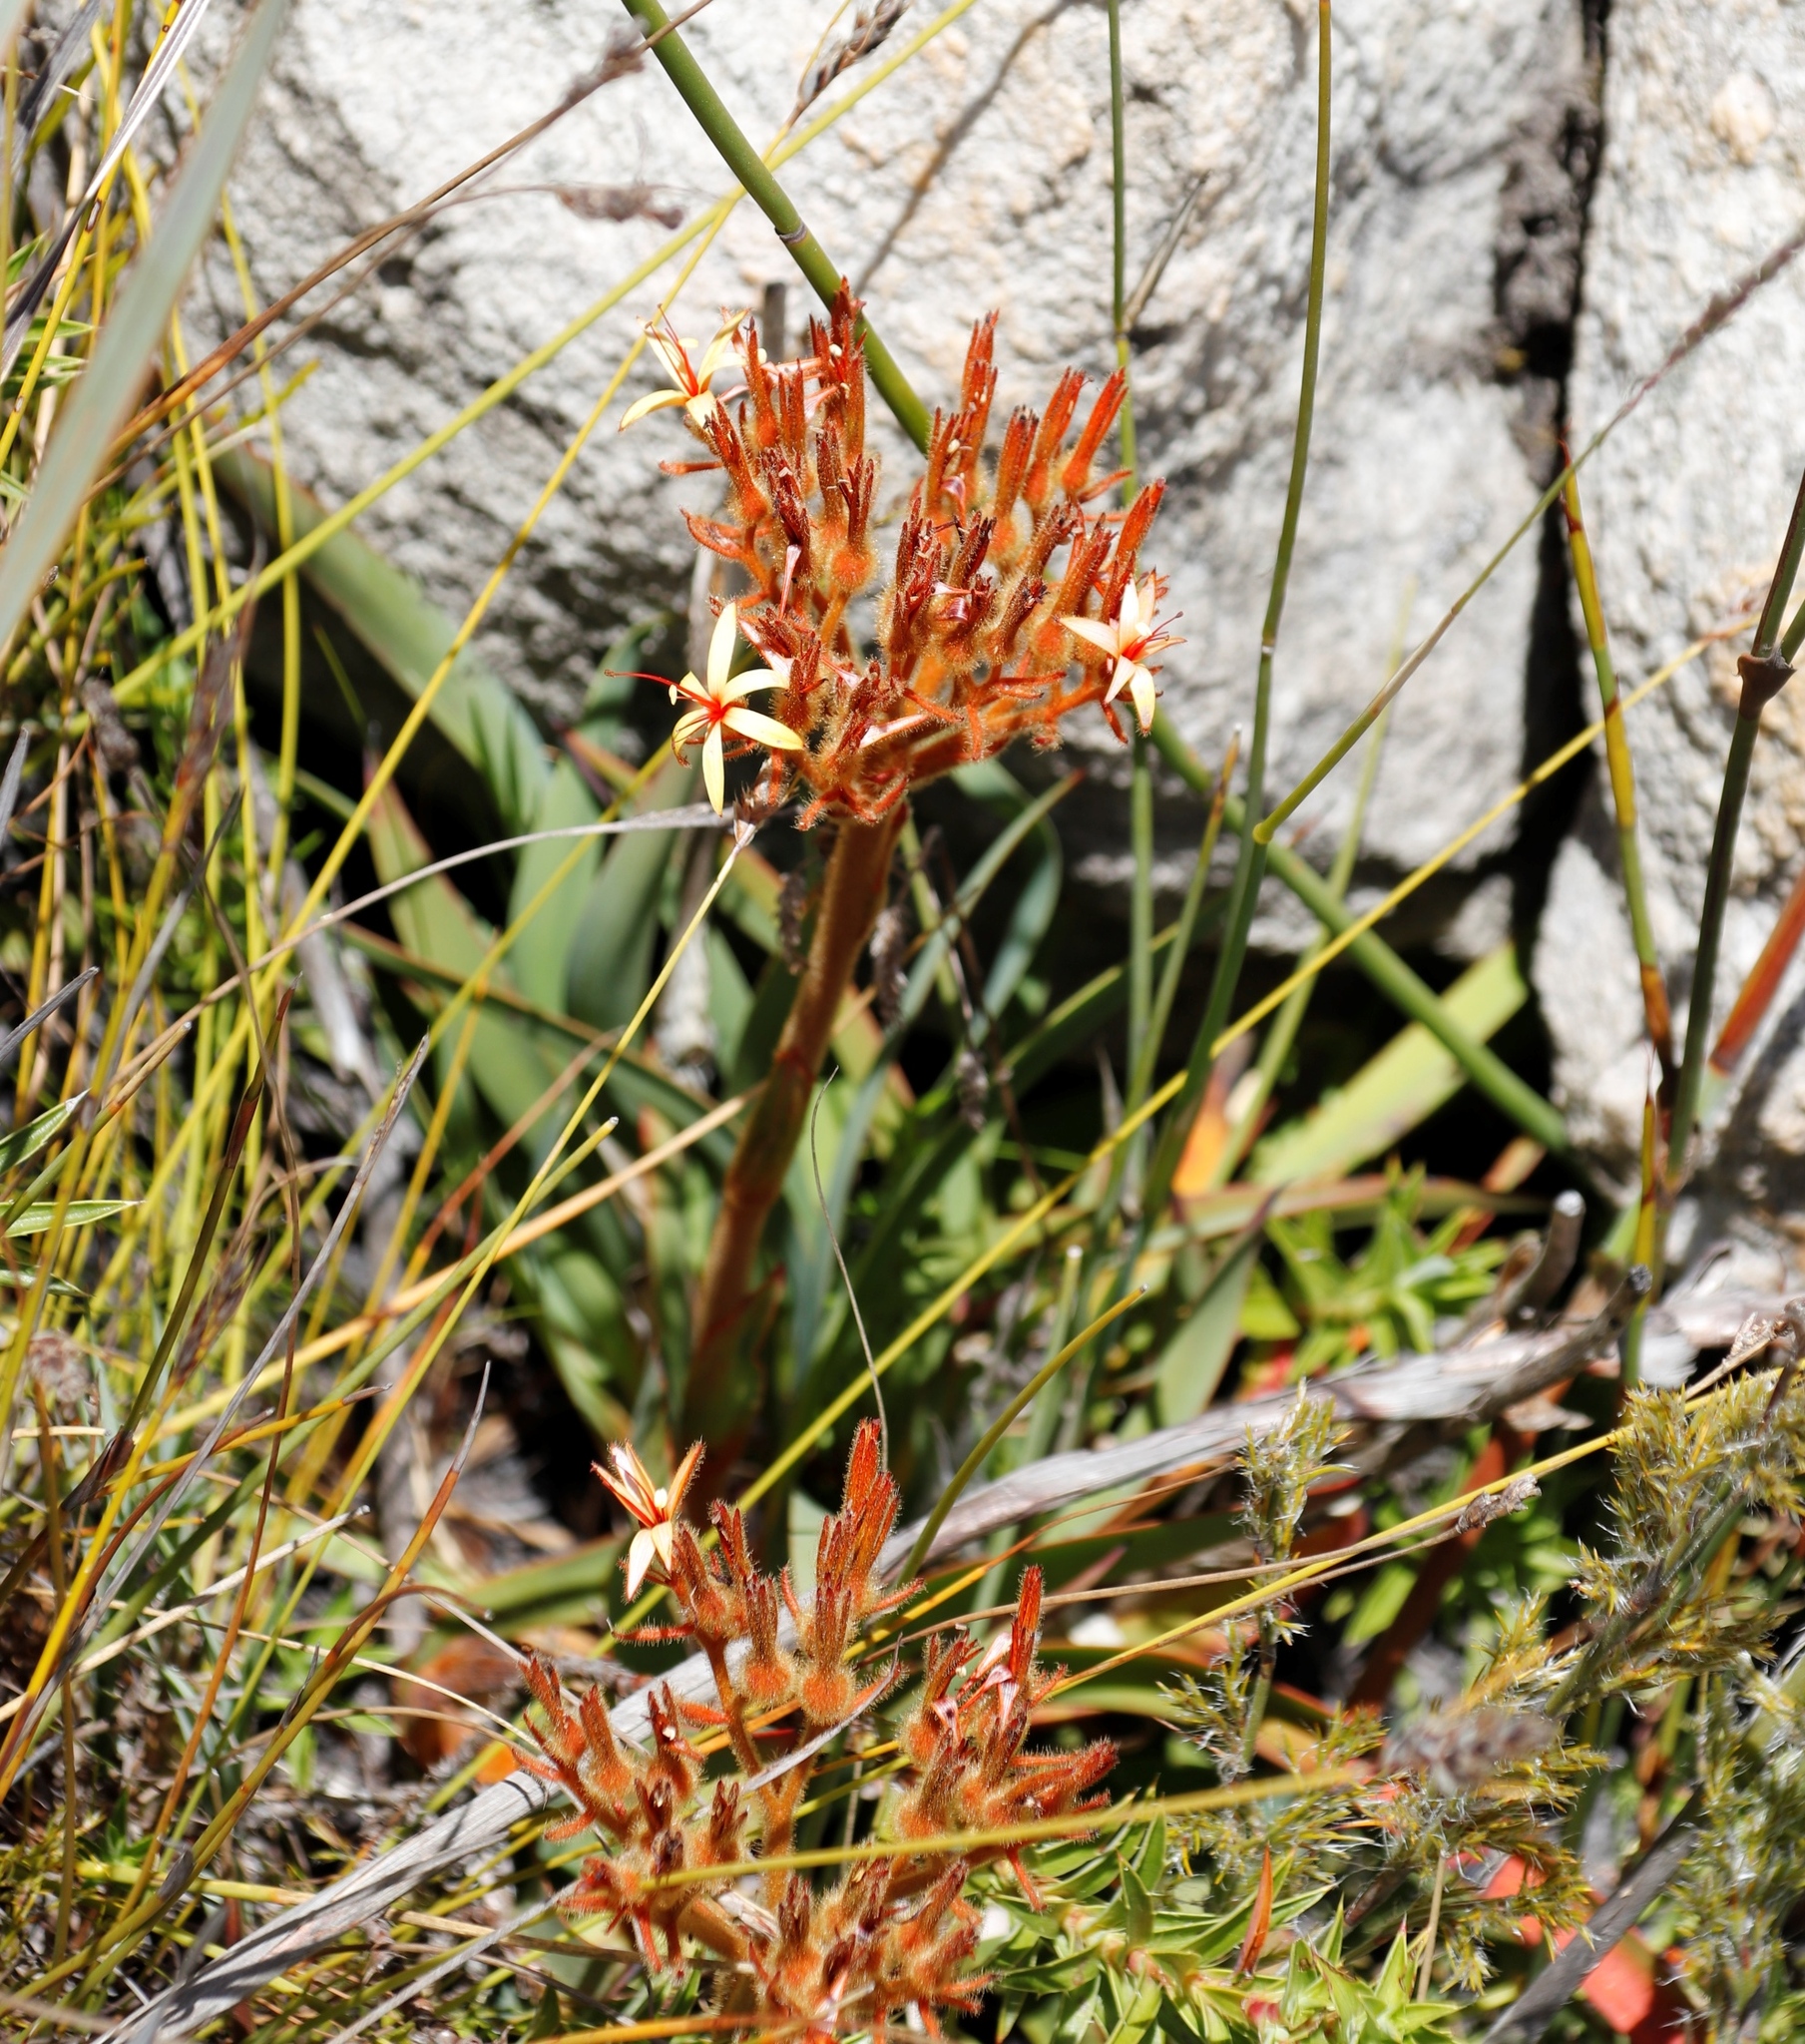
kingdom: Plantae
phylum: Tracheophyta
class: Liliopsida
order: Commelinales
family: Haemodoraceae
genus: Dilatris
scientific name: Dilatris viscosa
